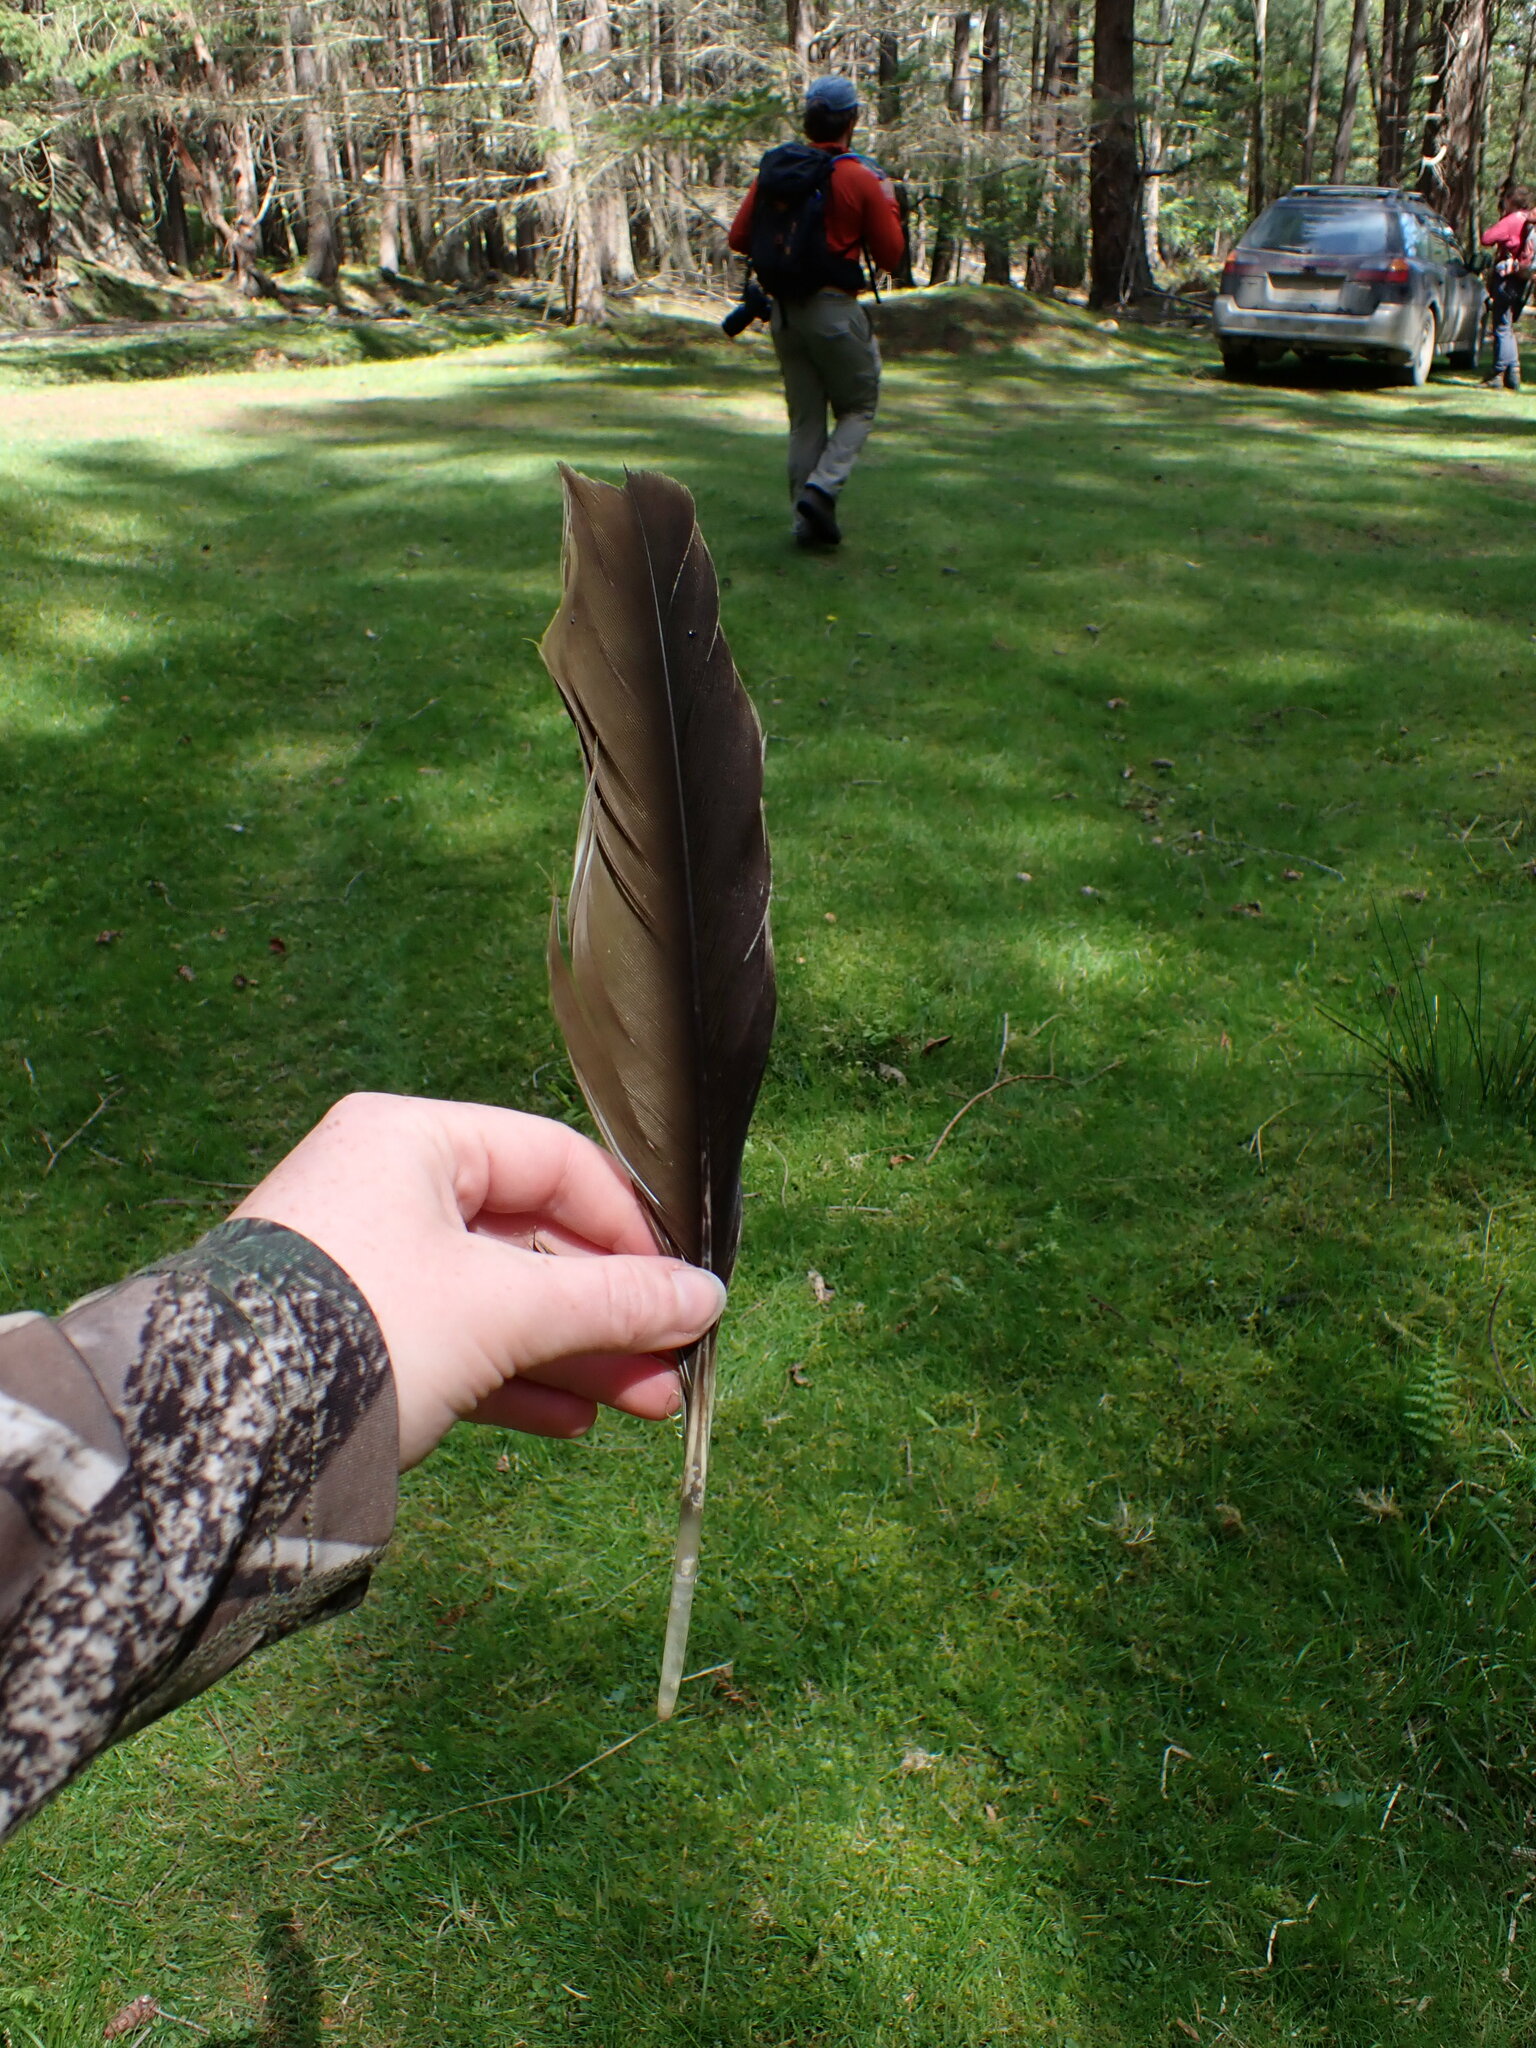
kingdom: Animalia
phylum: Chordata
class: Aves
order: Anseriformes
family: Anatidae
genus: Branta
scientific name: Branta canadensis
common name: Canada goose
